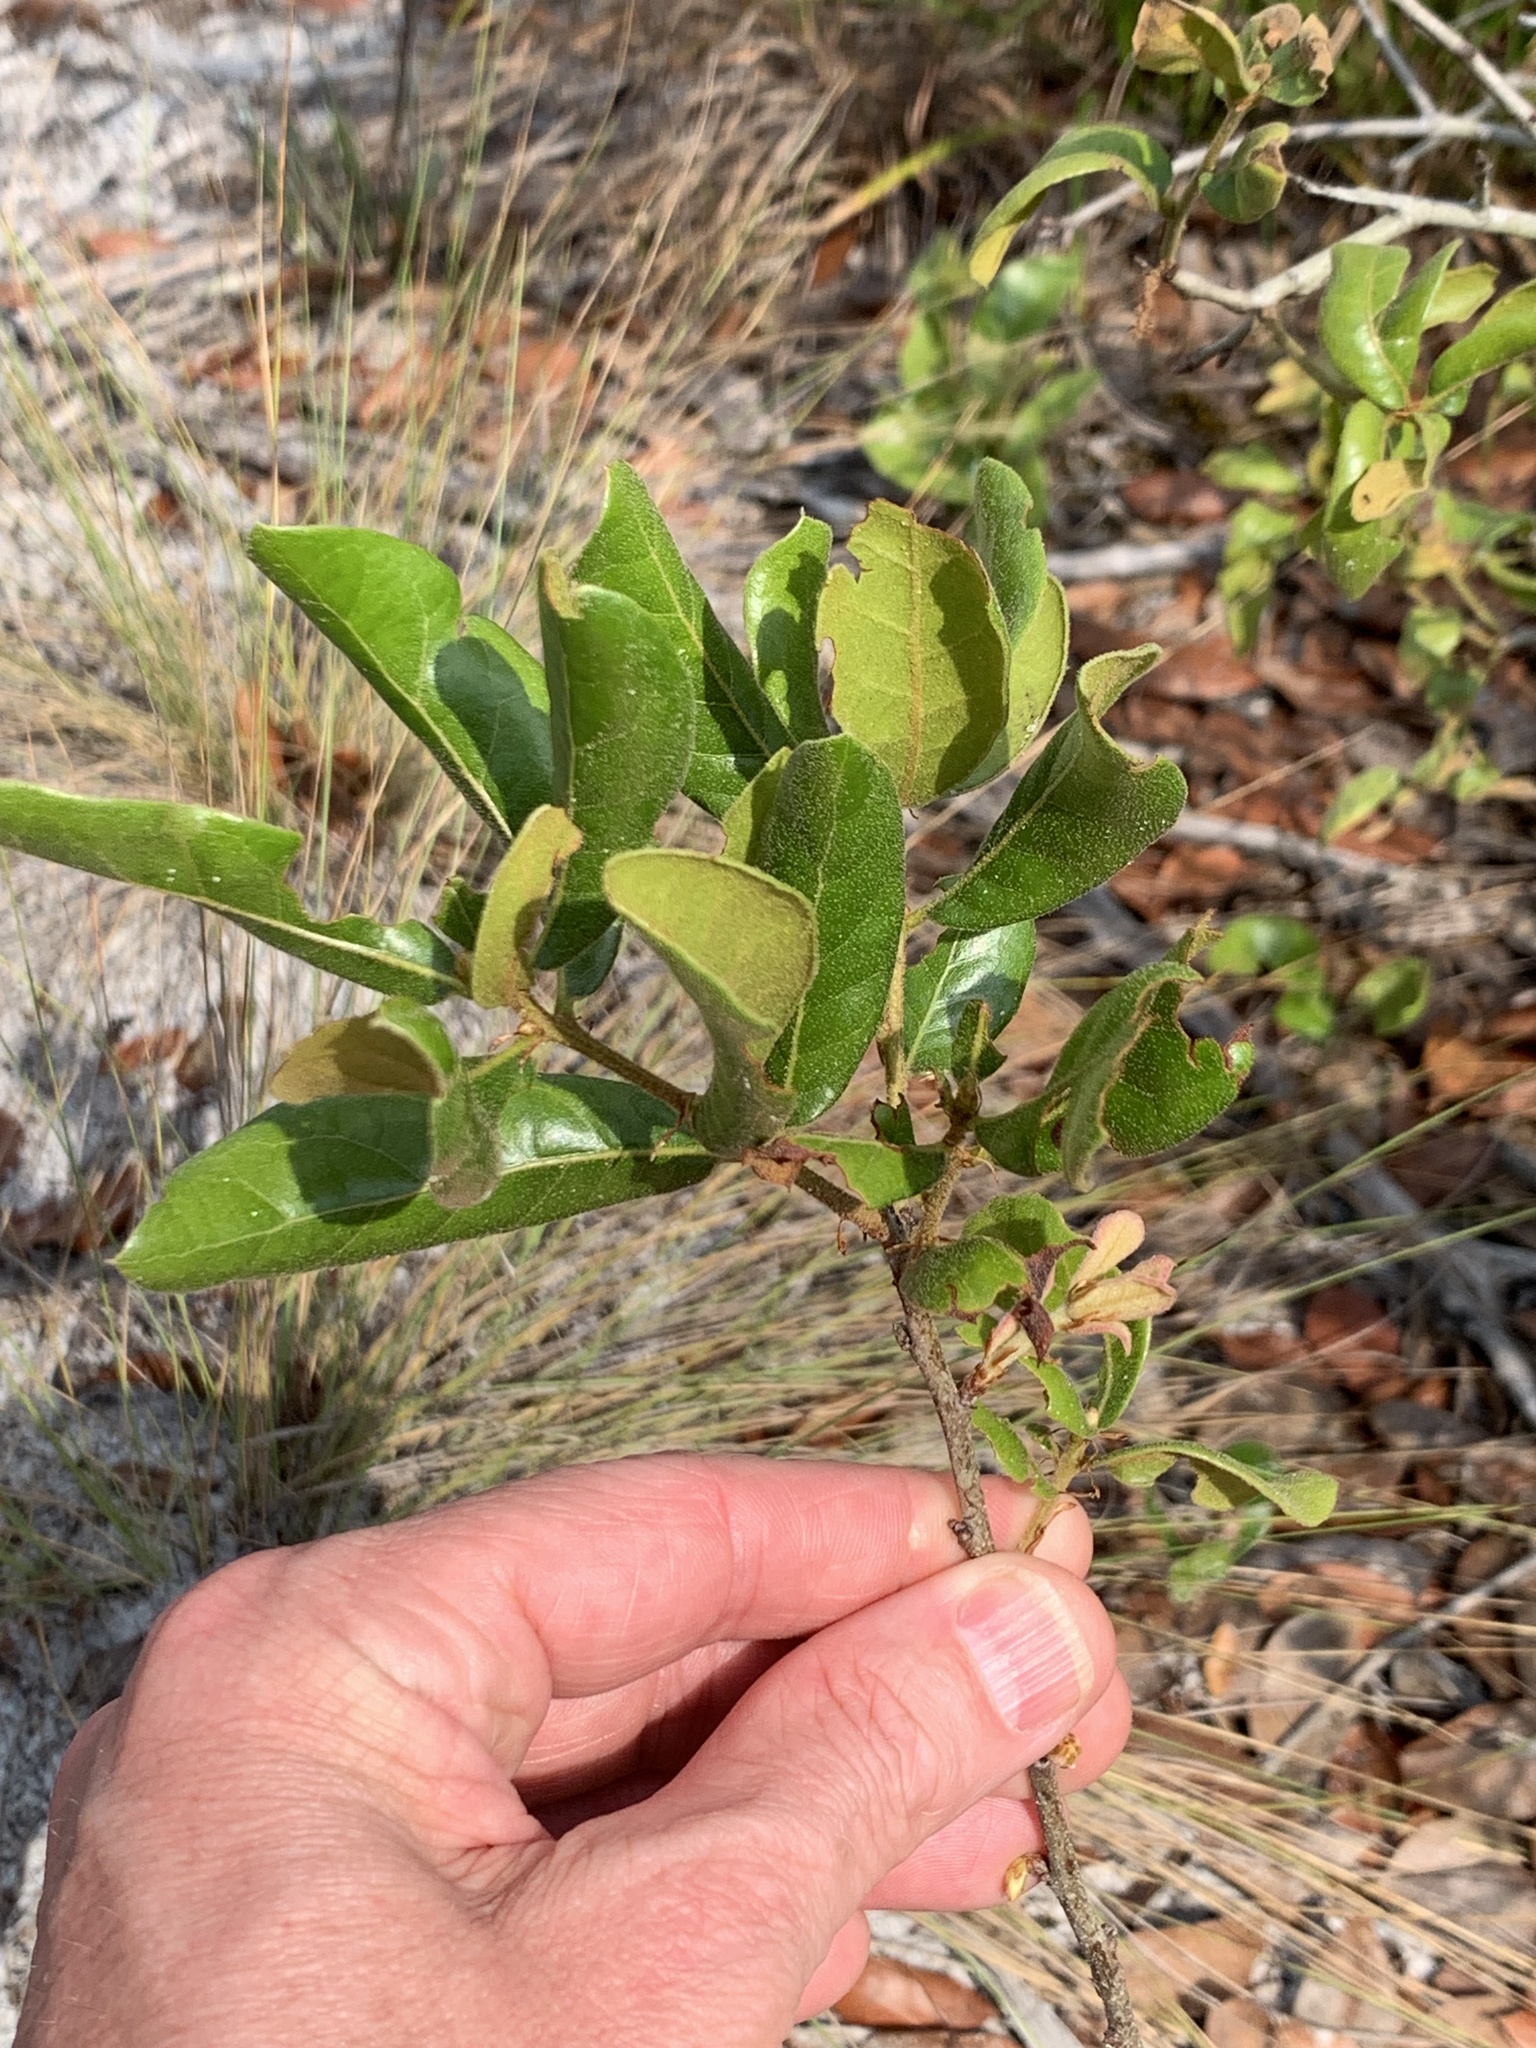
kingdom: Plantae
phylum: Tracheophyta
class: Magnoliopsida
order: Fagales
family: Fagaceae
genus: Quercus
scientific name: Quercus inopina
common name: Sandhill oak
